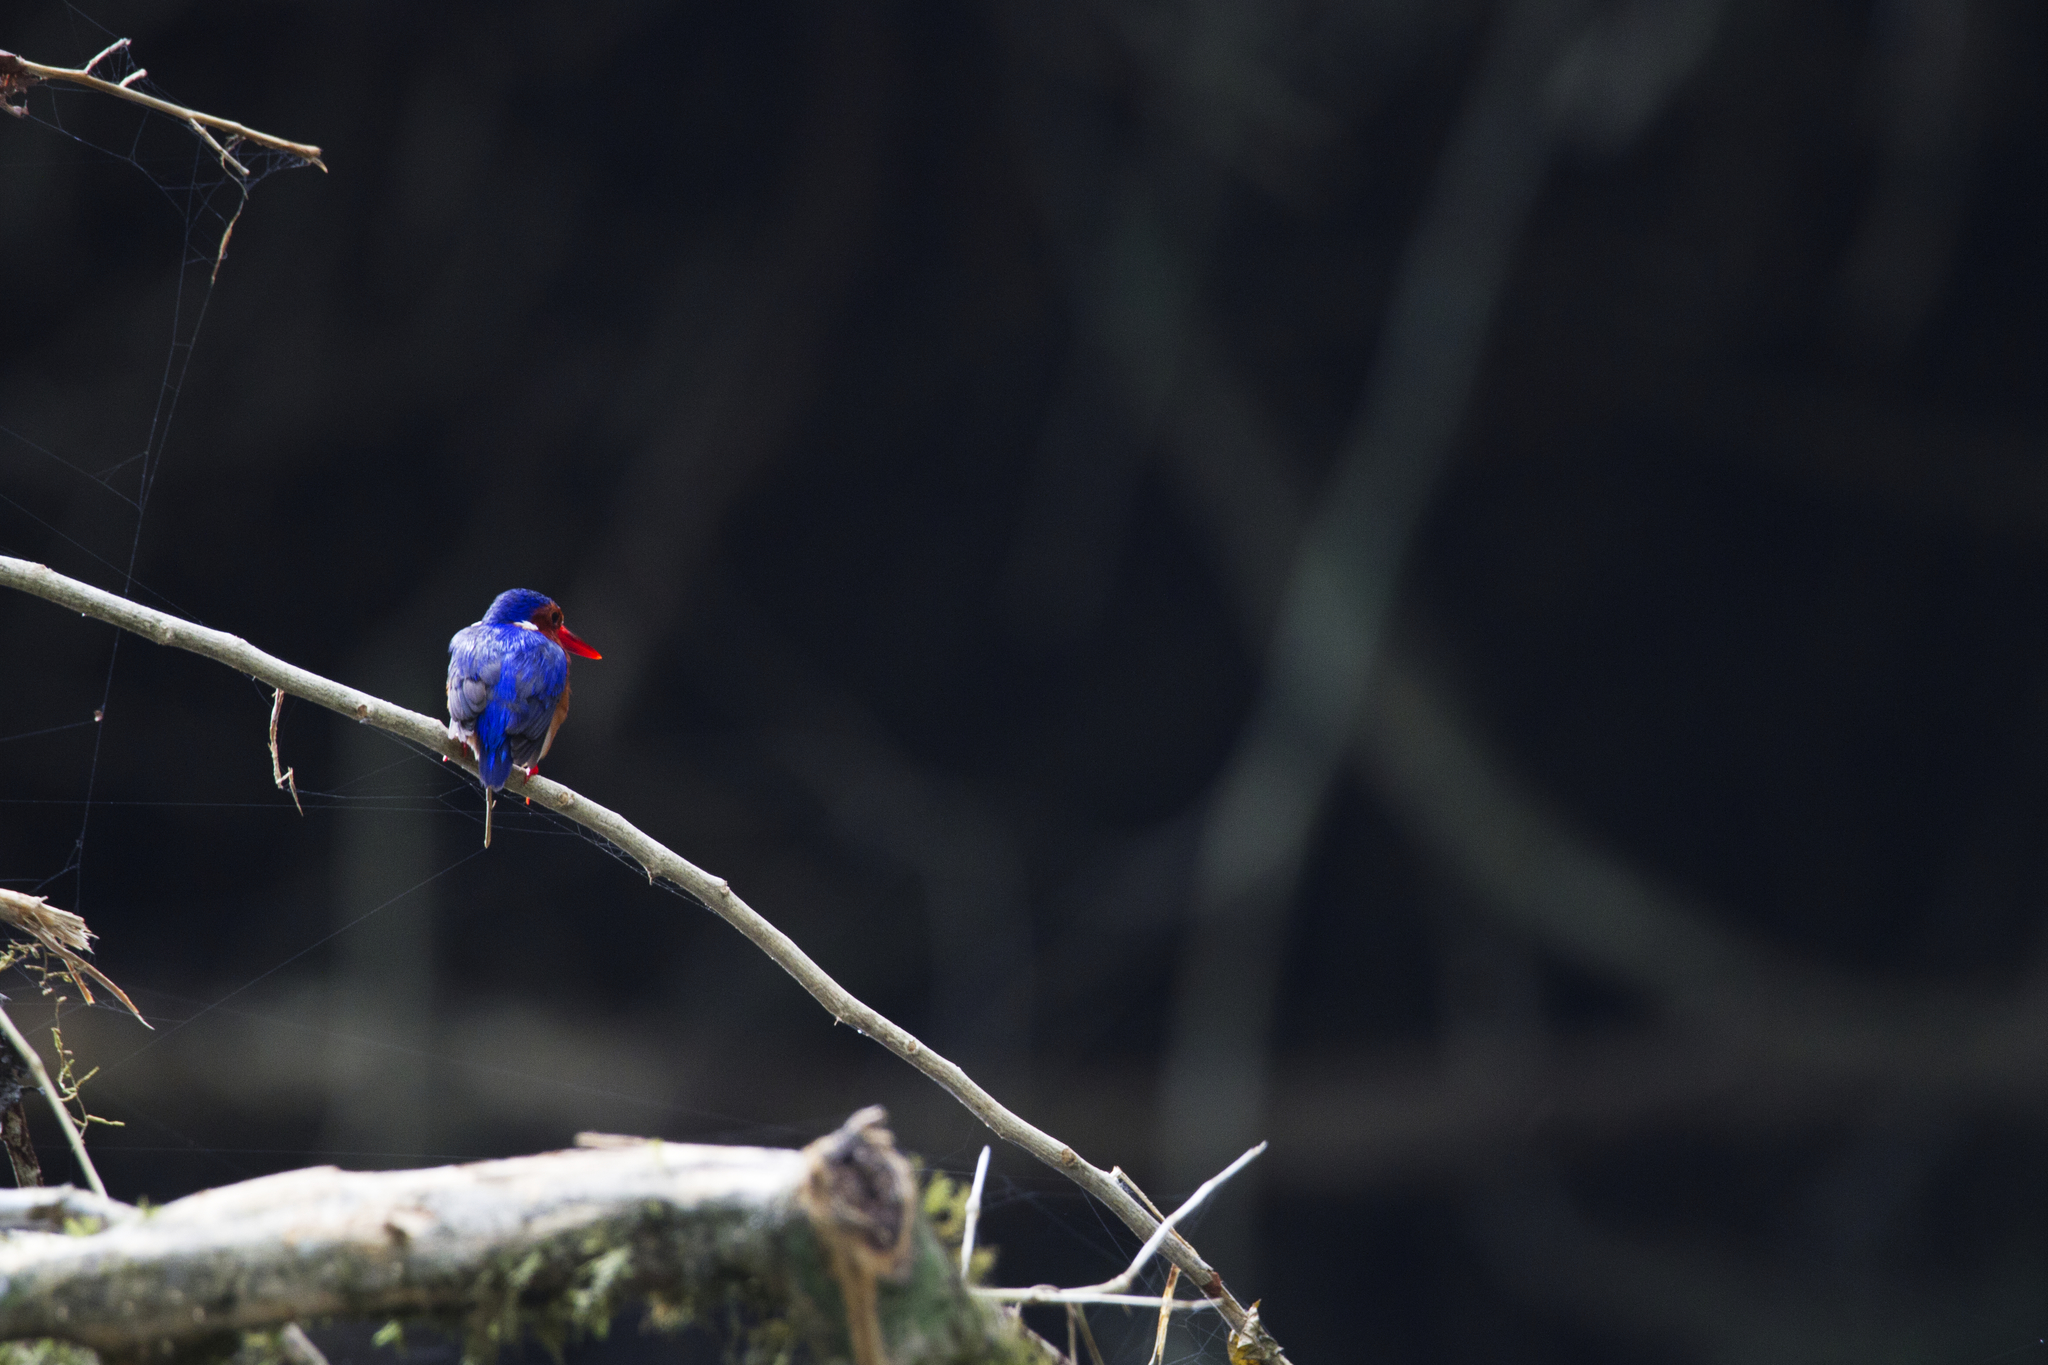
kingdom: Animalia
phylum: Chordata
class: Aves
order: Coraciiformes
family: Alcedinidae
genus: Corythornis
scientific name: Corythornis leucogaster
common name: White-bellied kingfisher
